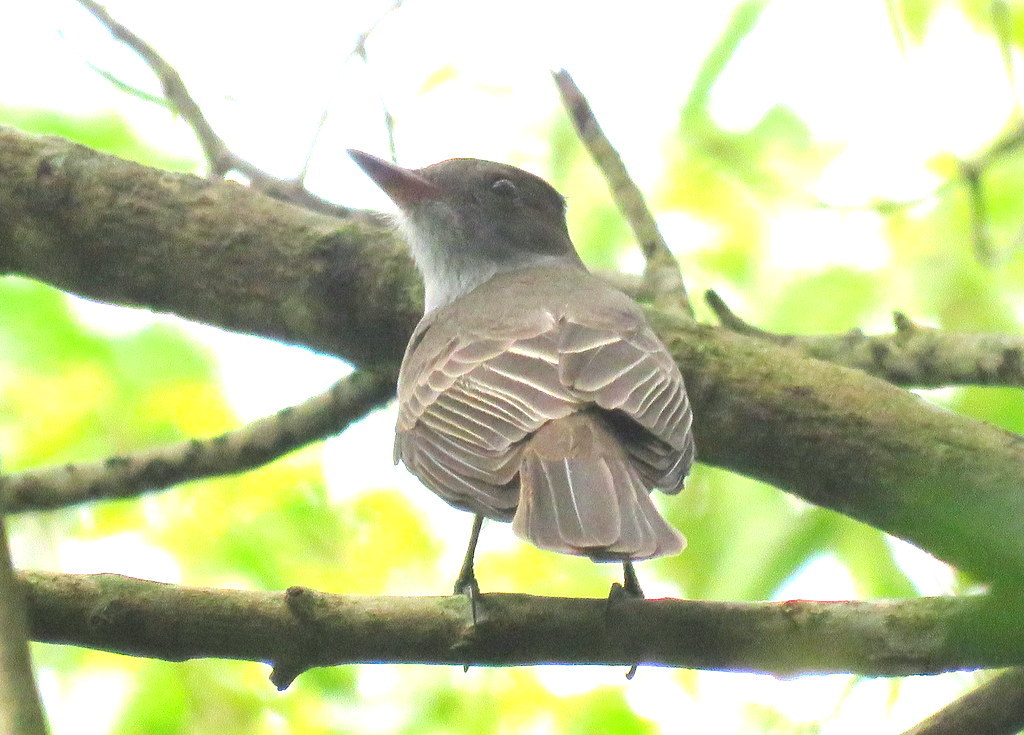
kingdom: Animalia
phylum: Chordata
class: Aves
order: Passeriformes
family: Tyrannidae
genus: Myiarchus
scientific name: Myiarchus swainsoni
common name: Swainson's flycatcher
